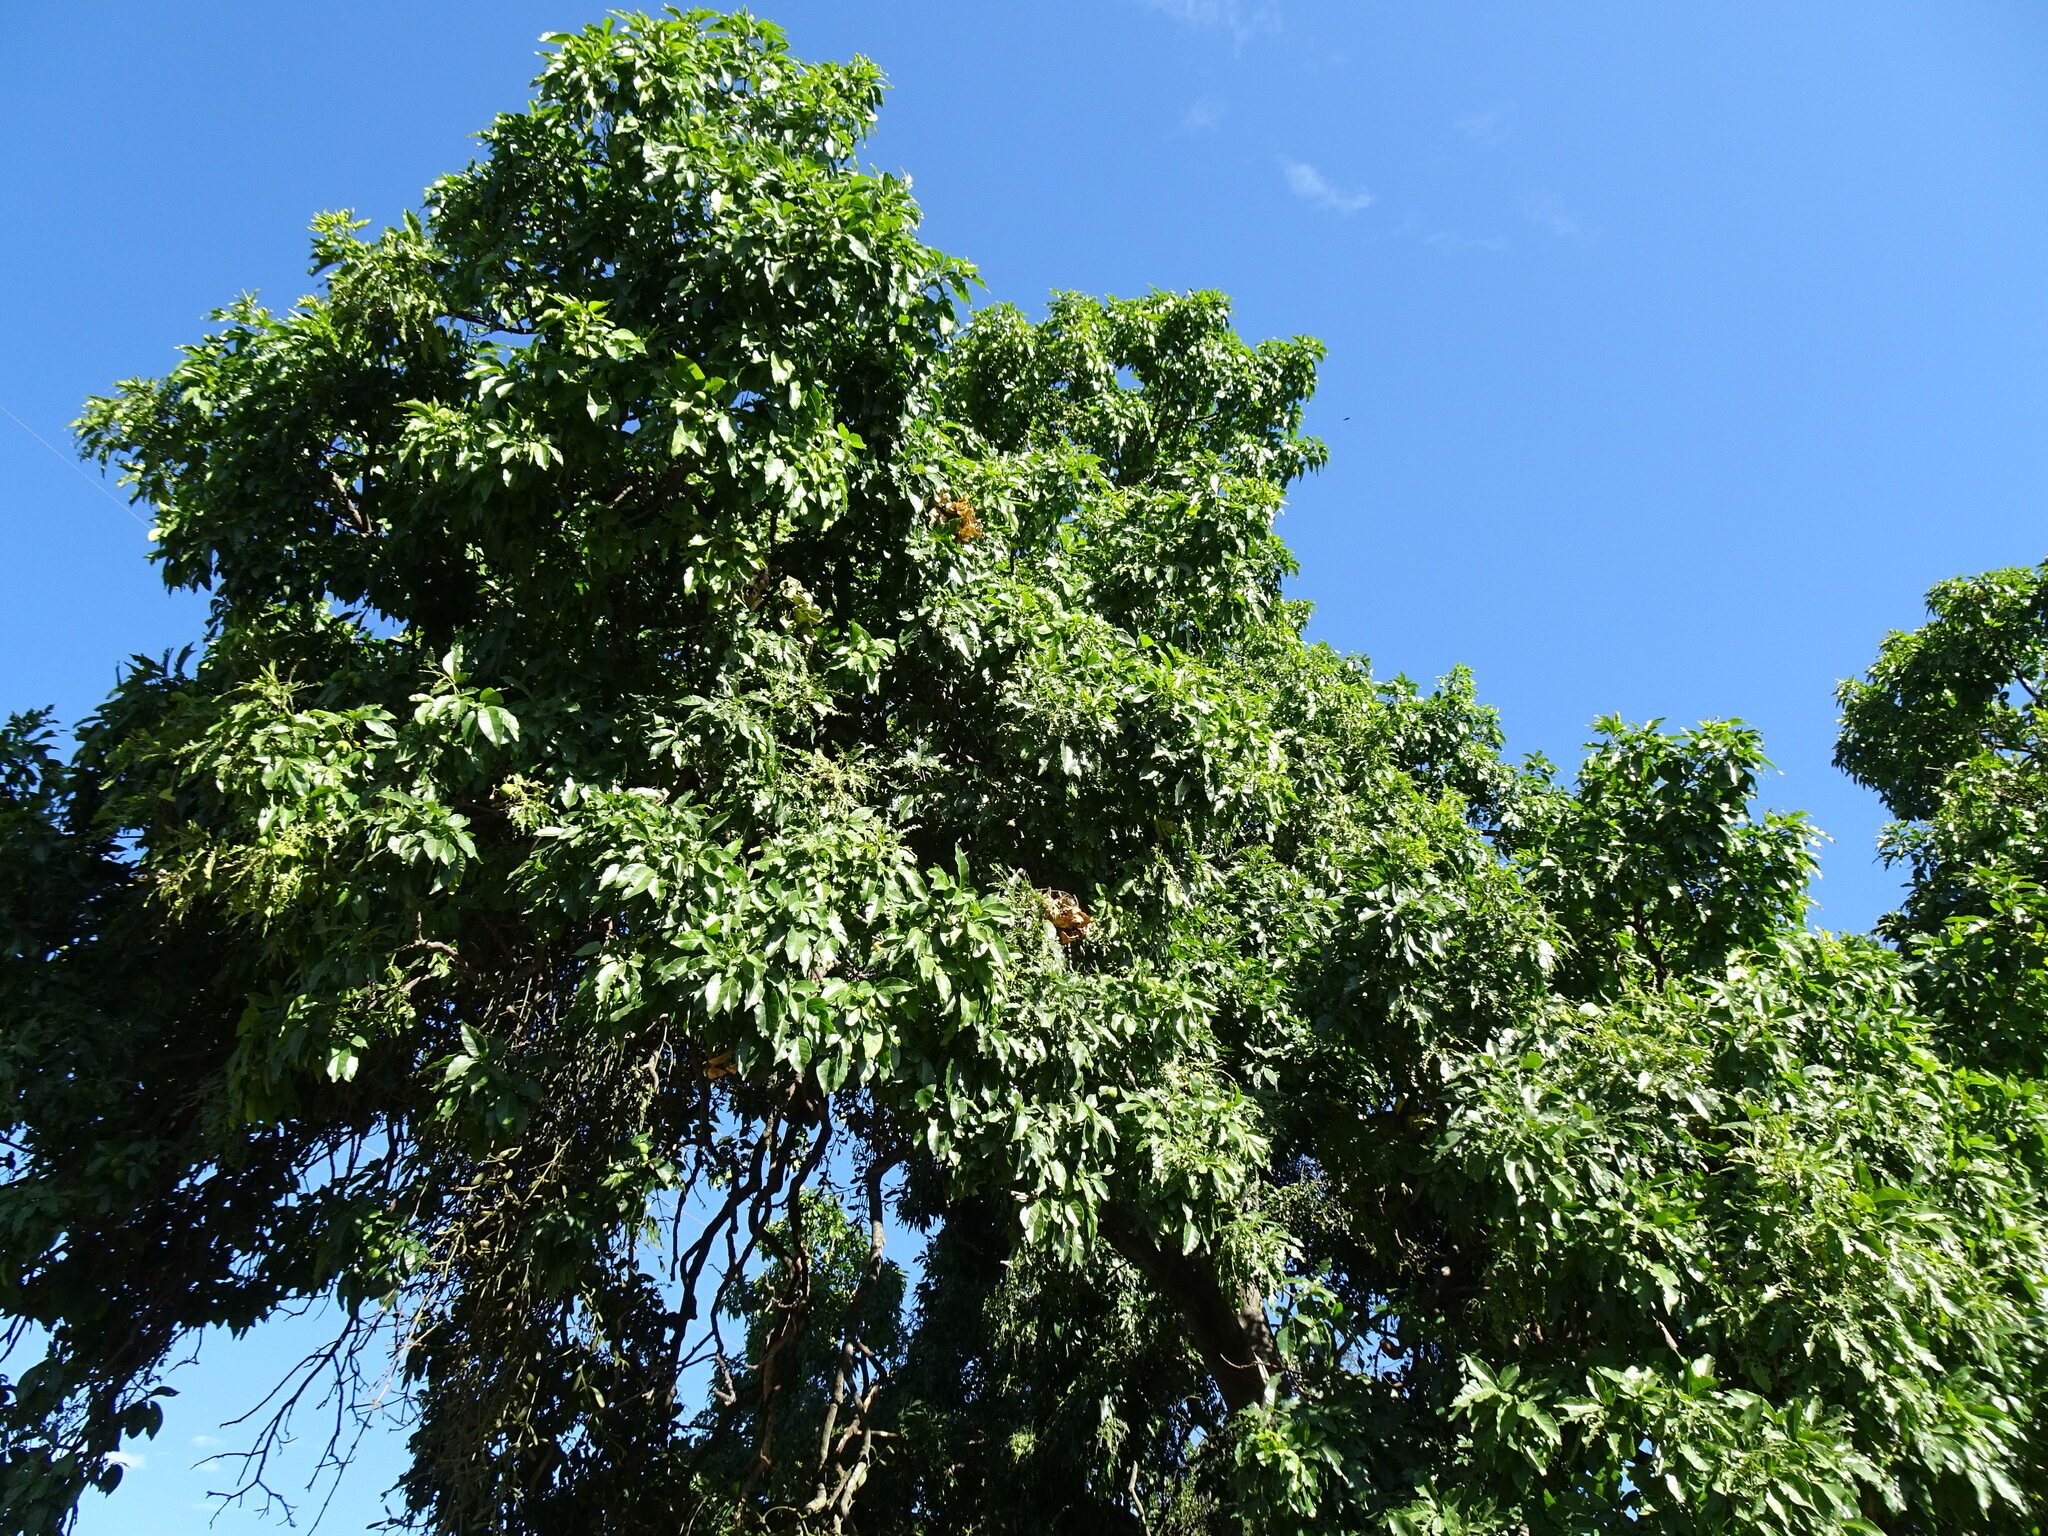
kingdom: Plantae
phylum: Tracheophyta
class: Magnoliopsida
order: Sapindales
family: Rutaceae
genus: Casimiroa
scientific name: Casimiroa edulis
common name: Mexican-apple
